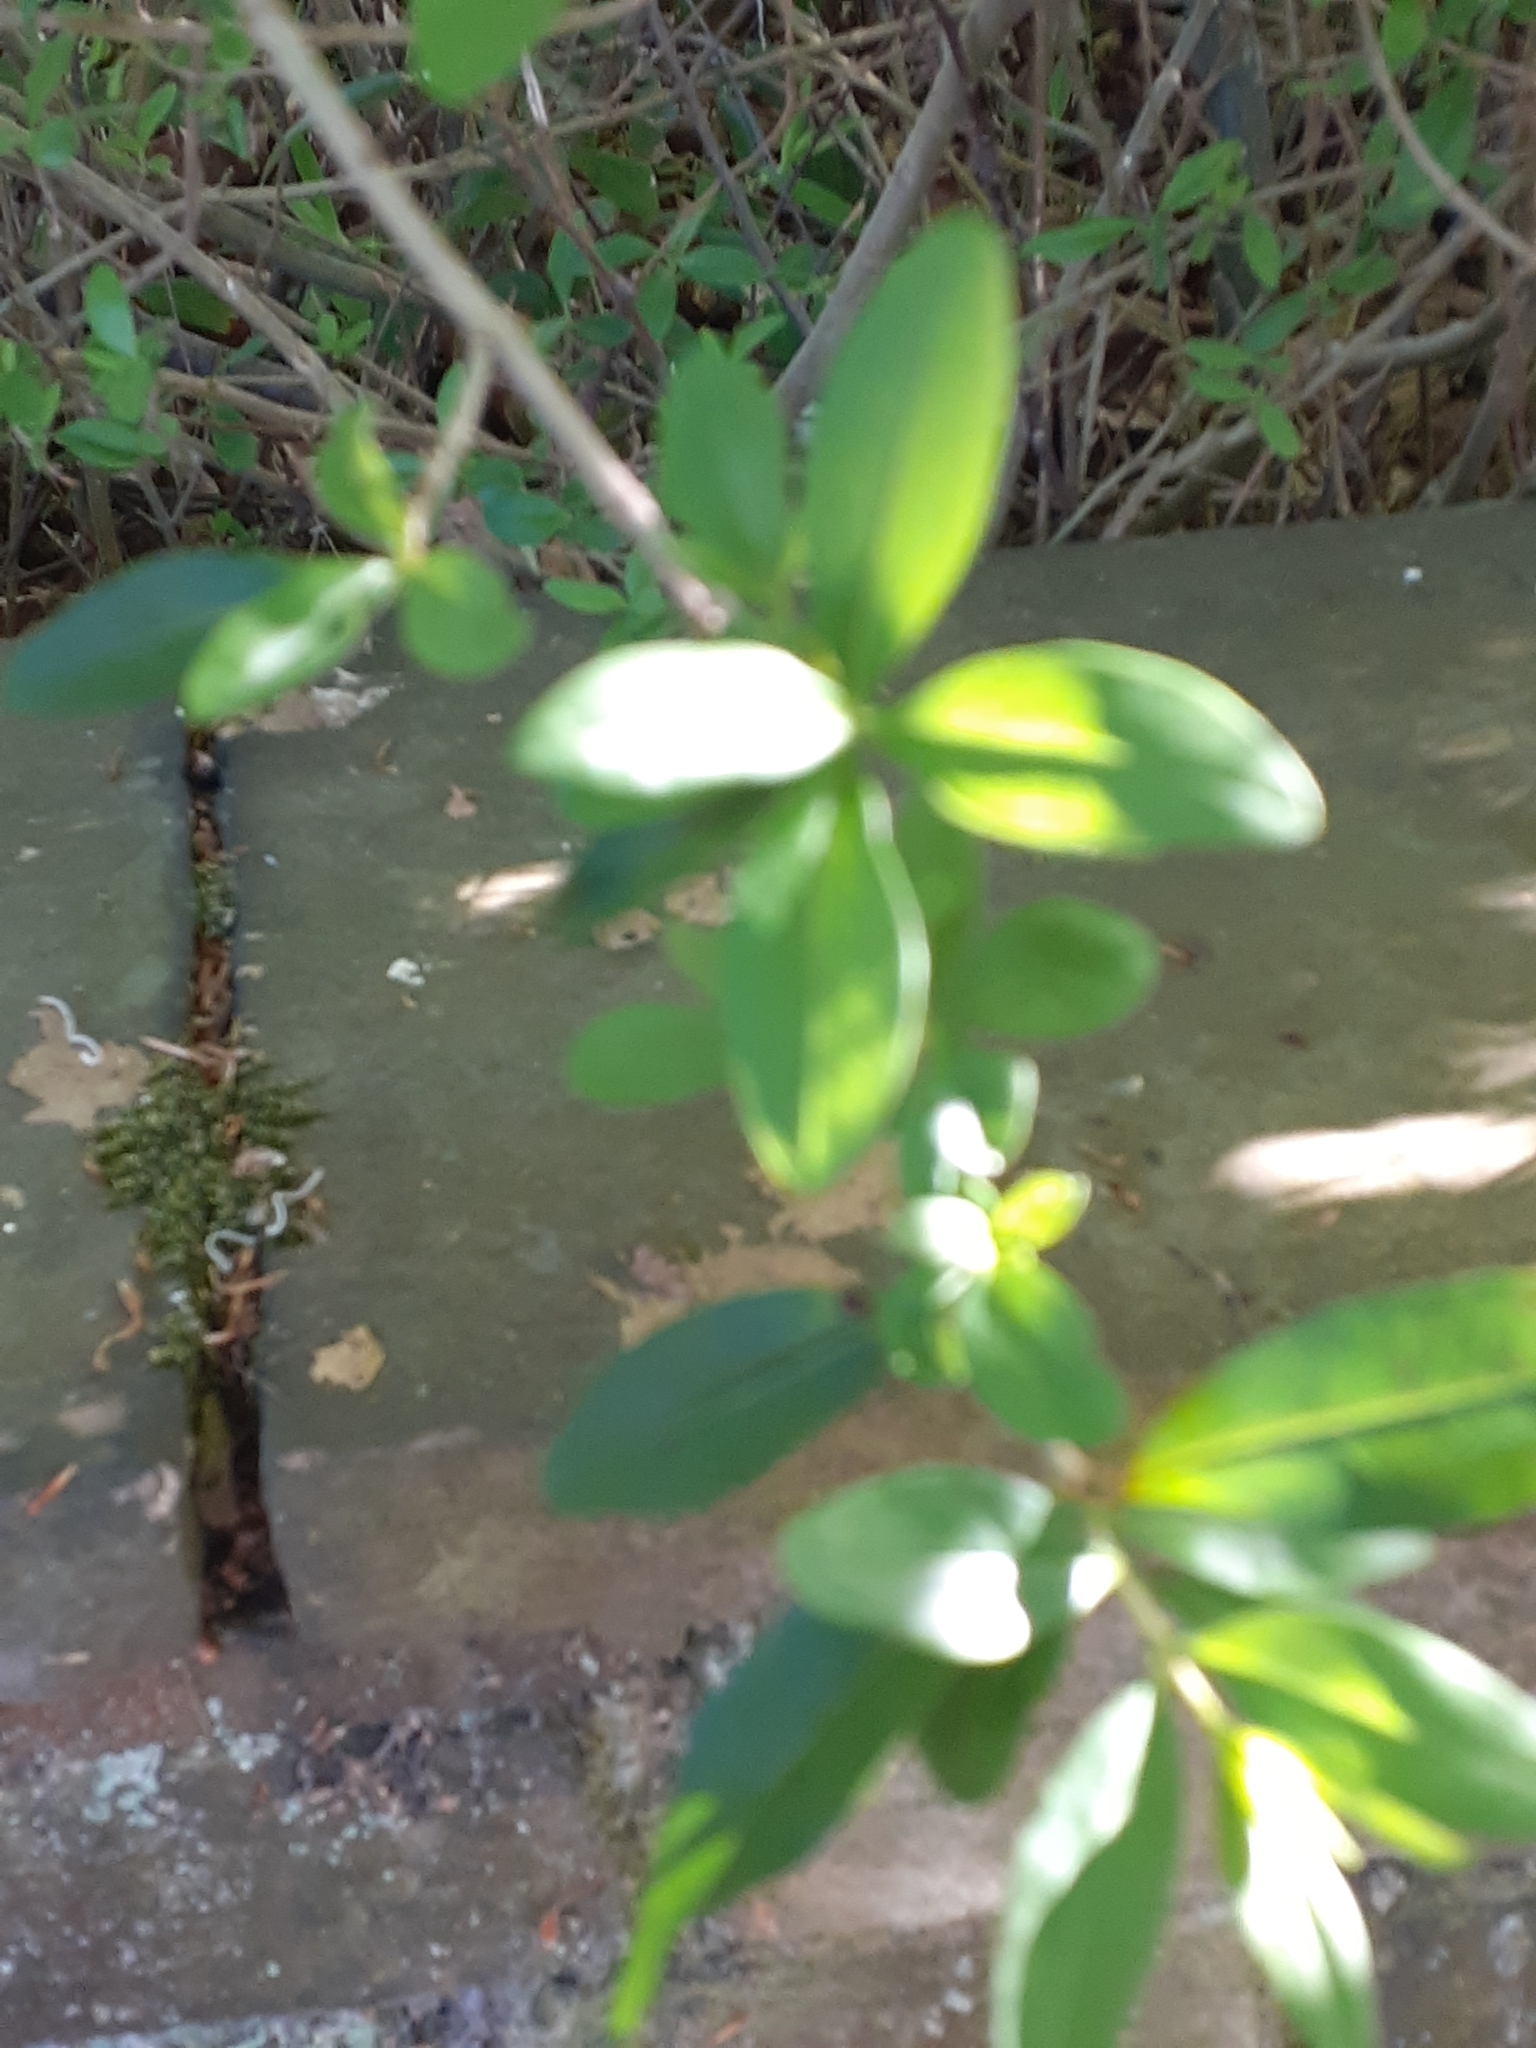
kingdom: Plantae
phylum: Tracheophyta
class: Magnoliopsida
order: Lamiales
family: Oleaceae
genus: Ligustrum
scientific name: Ligustrum vulgare
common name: Wild privet
